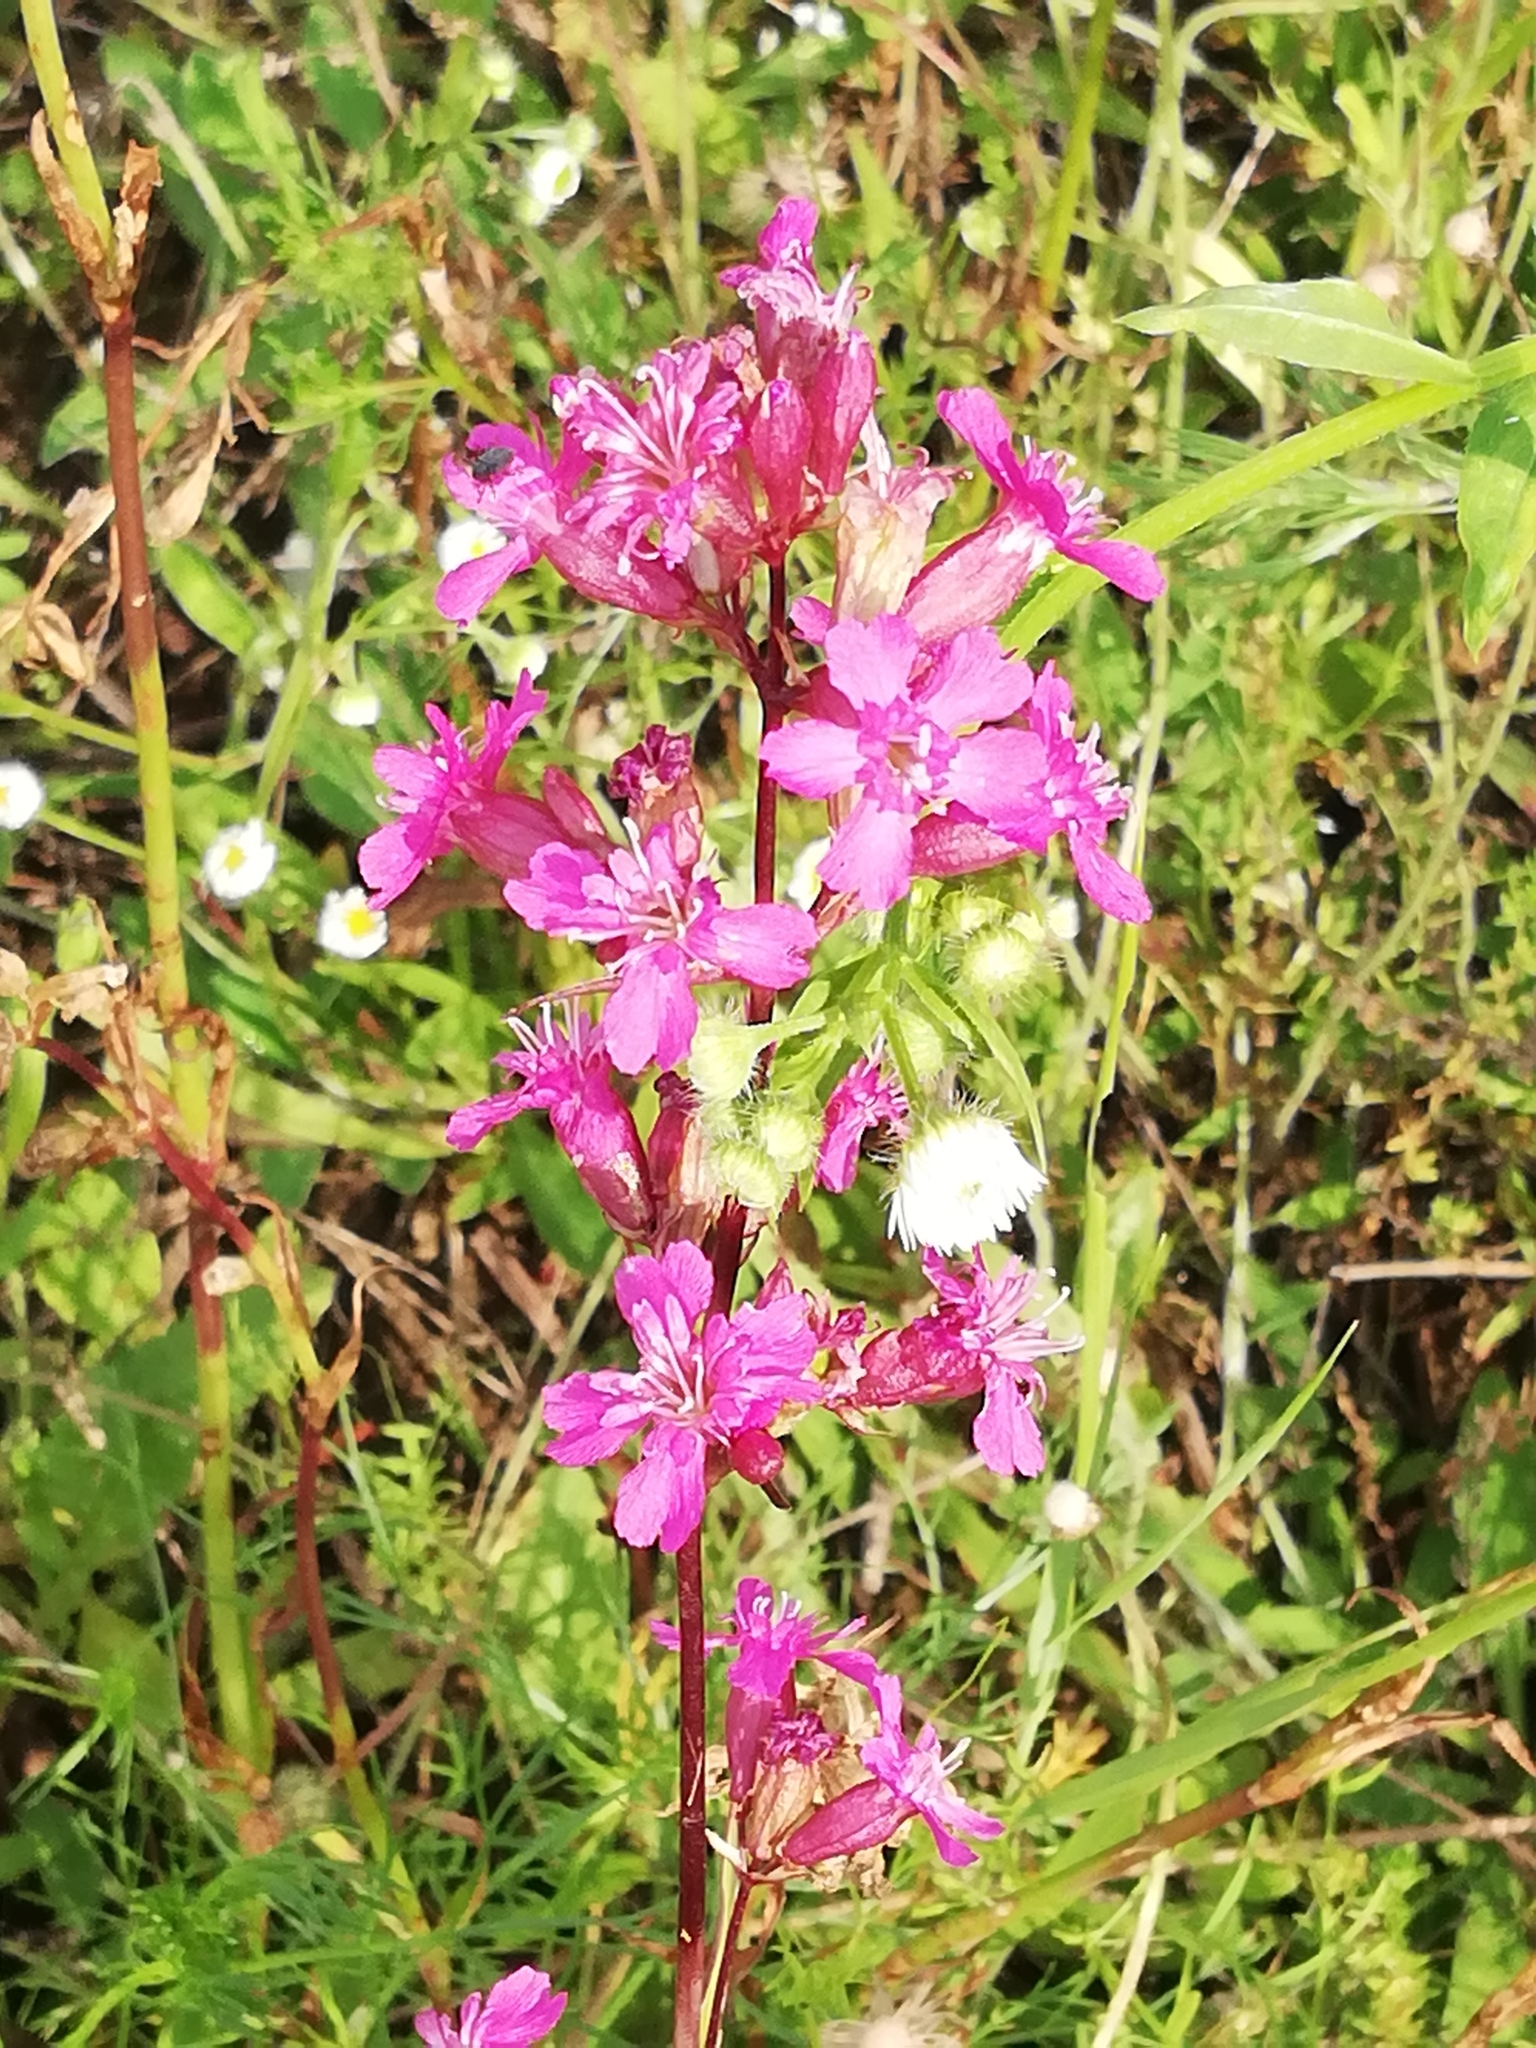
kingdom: Plantae
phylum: Tracheophyta
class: Magnoliopsida
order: Caryophyllales
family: Caryophyllaceae
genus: Viscaria
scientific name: Viscaria vulgaris
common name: Clammy campion
